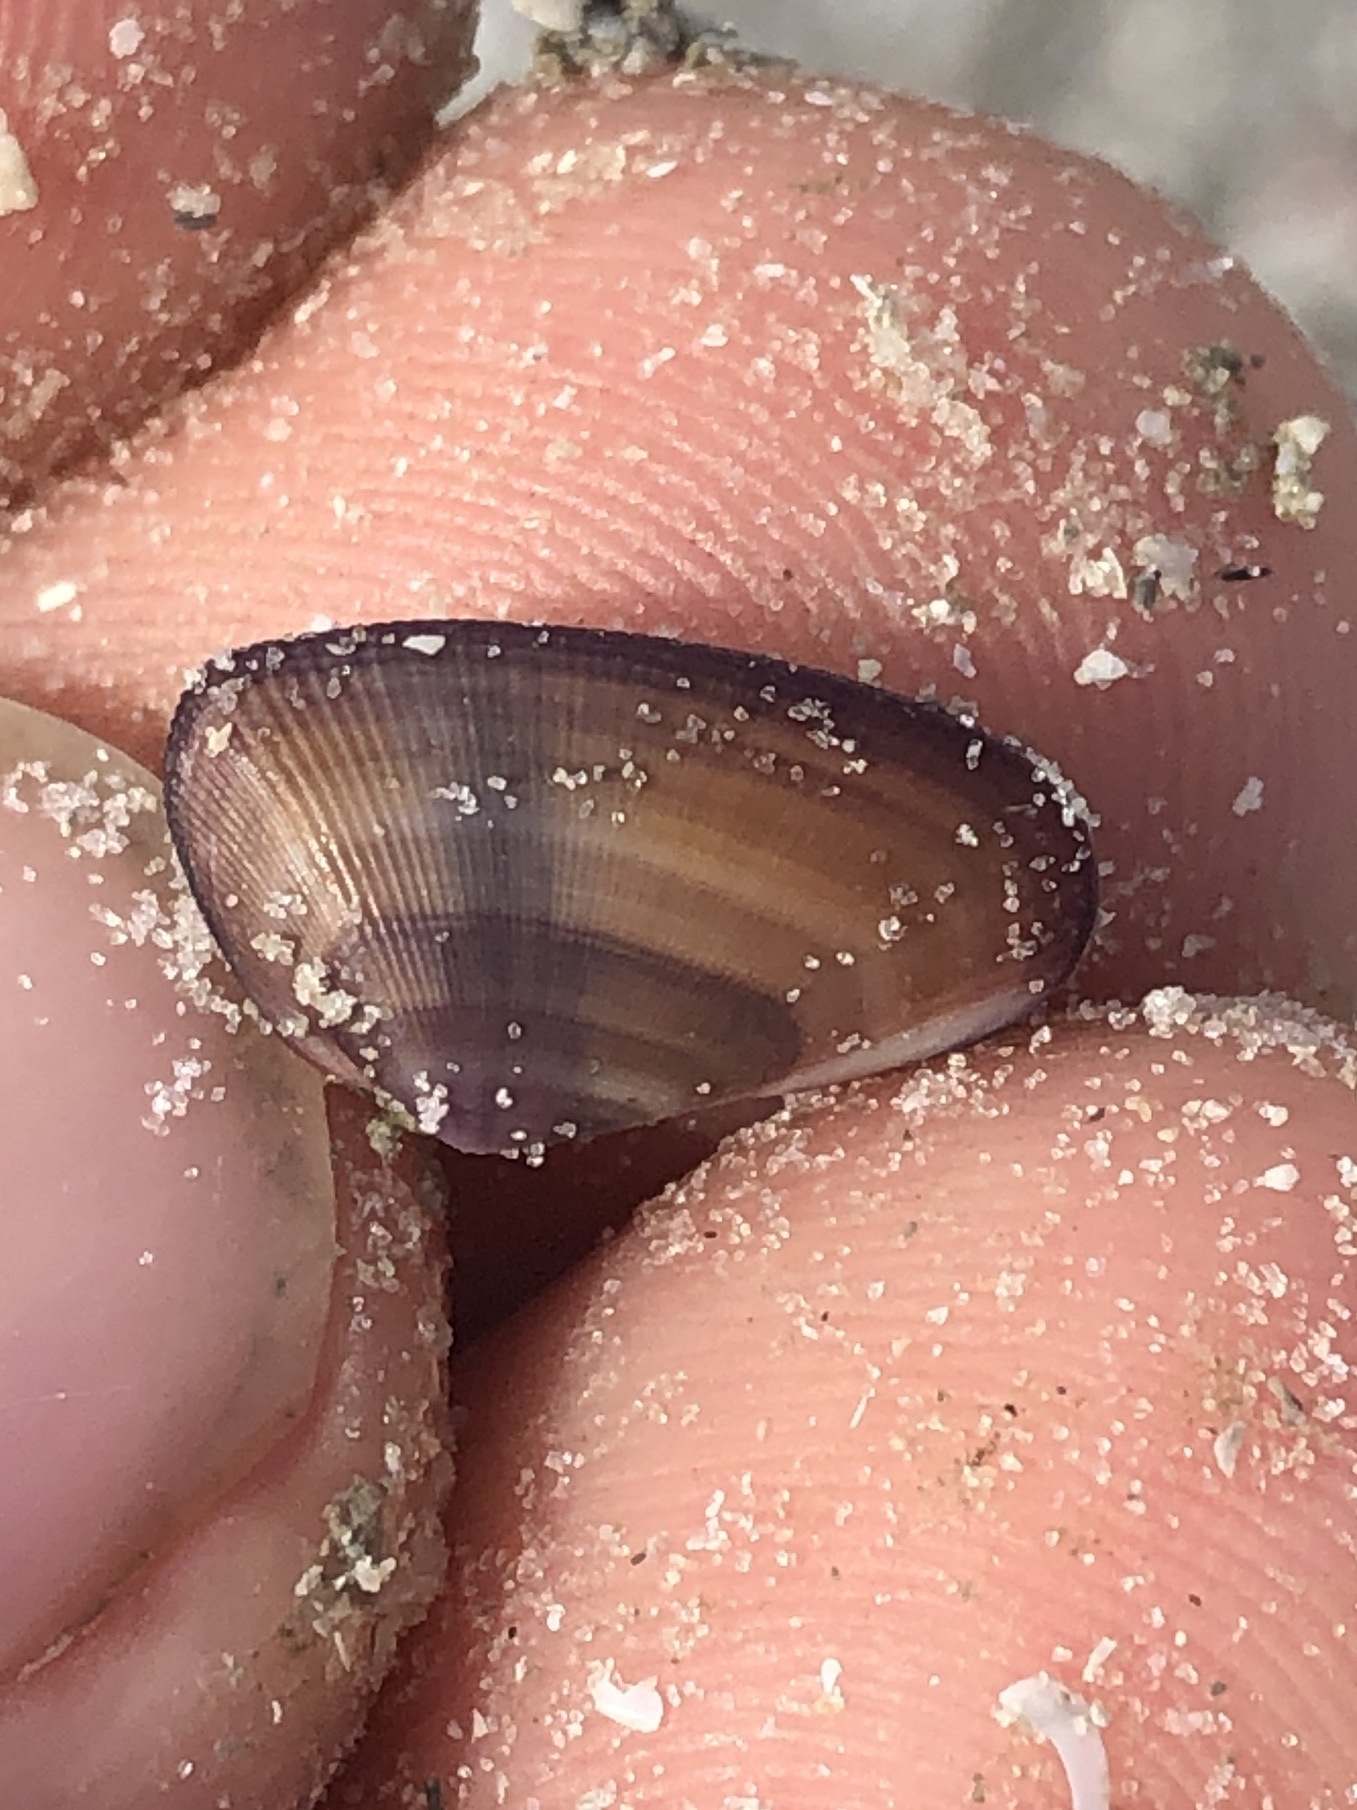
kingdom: Animalia
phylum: Mollusca
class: Bivalvia
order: Cardiida
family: Donacidae
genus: Donax
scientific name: Donax variabilis
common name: Butterfly shell
